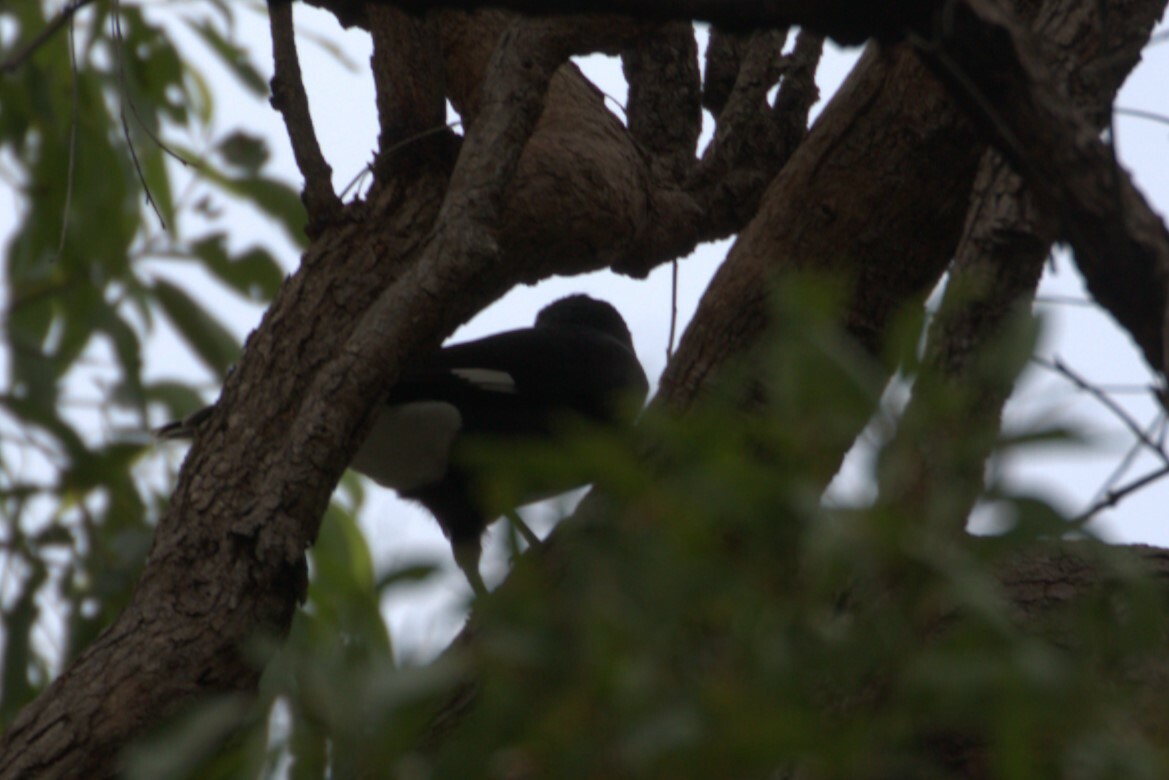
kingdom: Animalia
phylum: Chordata
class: Aves
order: Passeriformes
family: Cracticidae
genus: Strepera
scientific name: Strepera graculina
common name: Pied currawong
